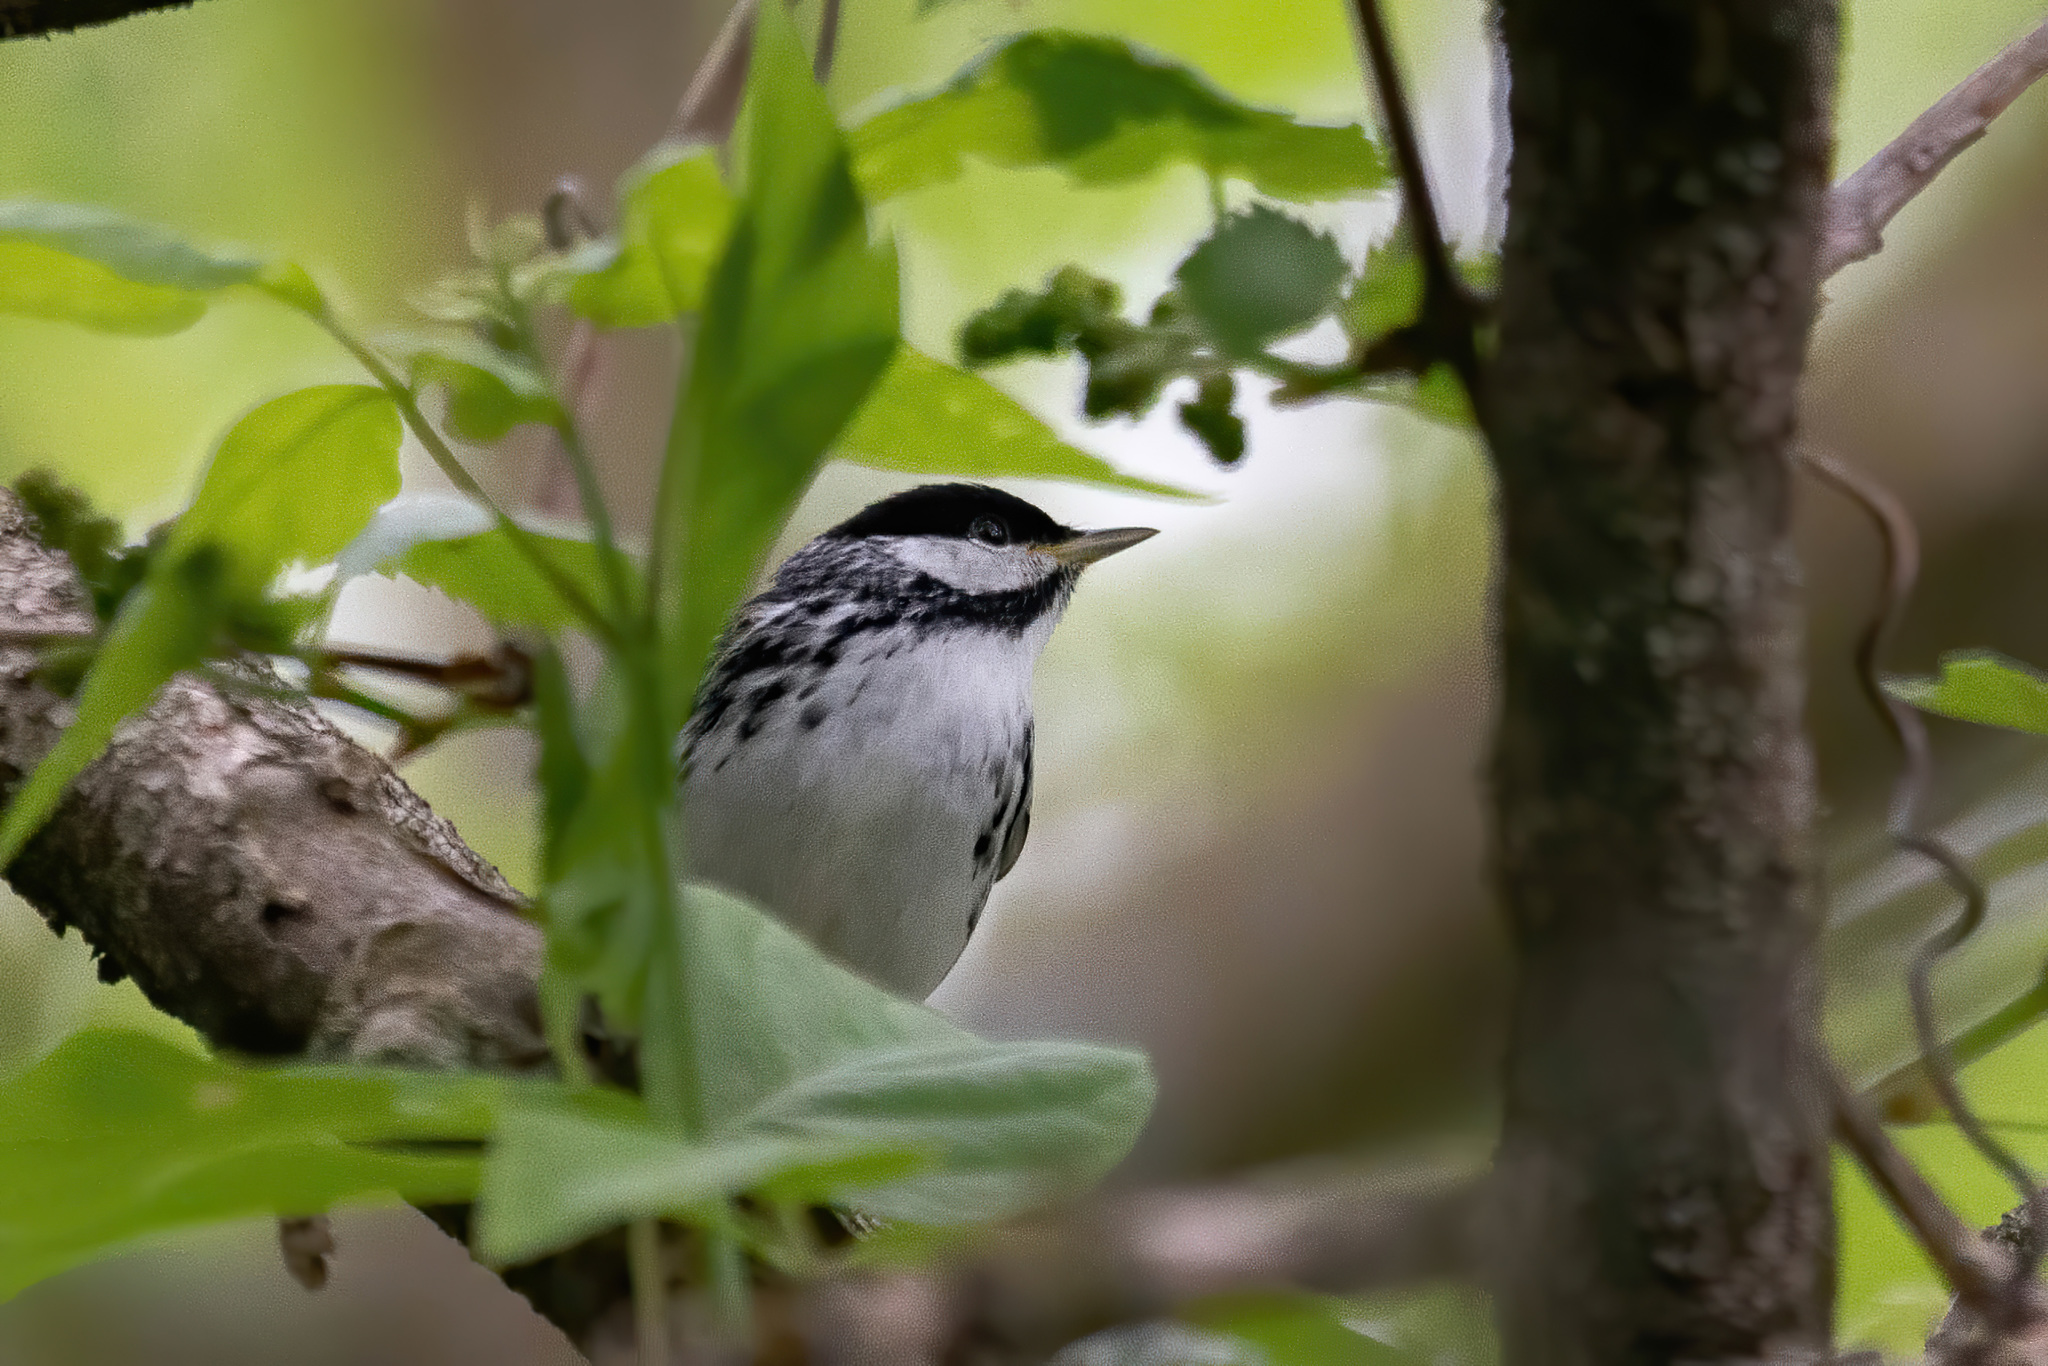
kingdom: Animalia
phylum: Chordata
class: Aves
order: Passeriformes
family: Parulidae
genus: Setophaga
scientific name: Setophaga striata
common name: Blackpoll warbler
